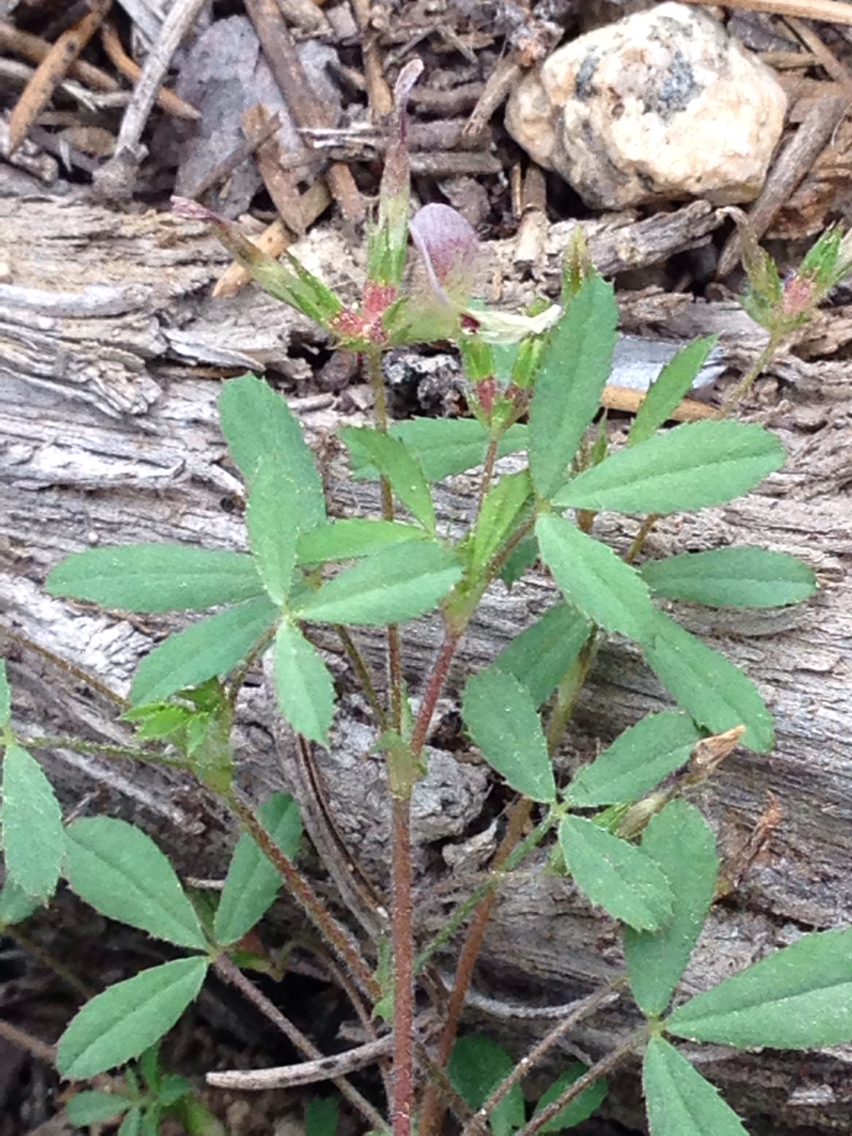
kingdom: Plantae
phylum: Tracheophyta
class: Magnoliopsida
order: Fabales
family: Fabaceae
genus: Trifolium
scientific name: Trifolium monanthum
